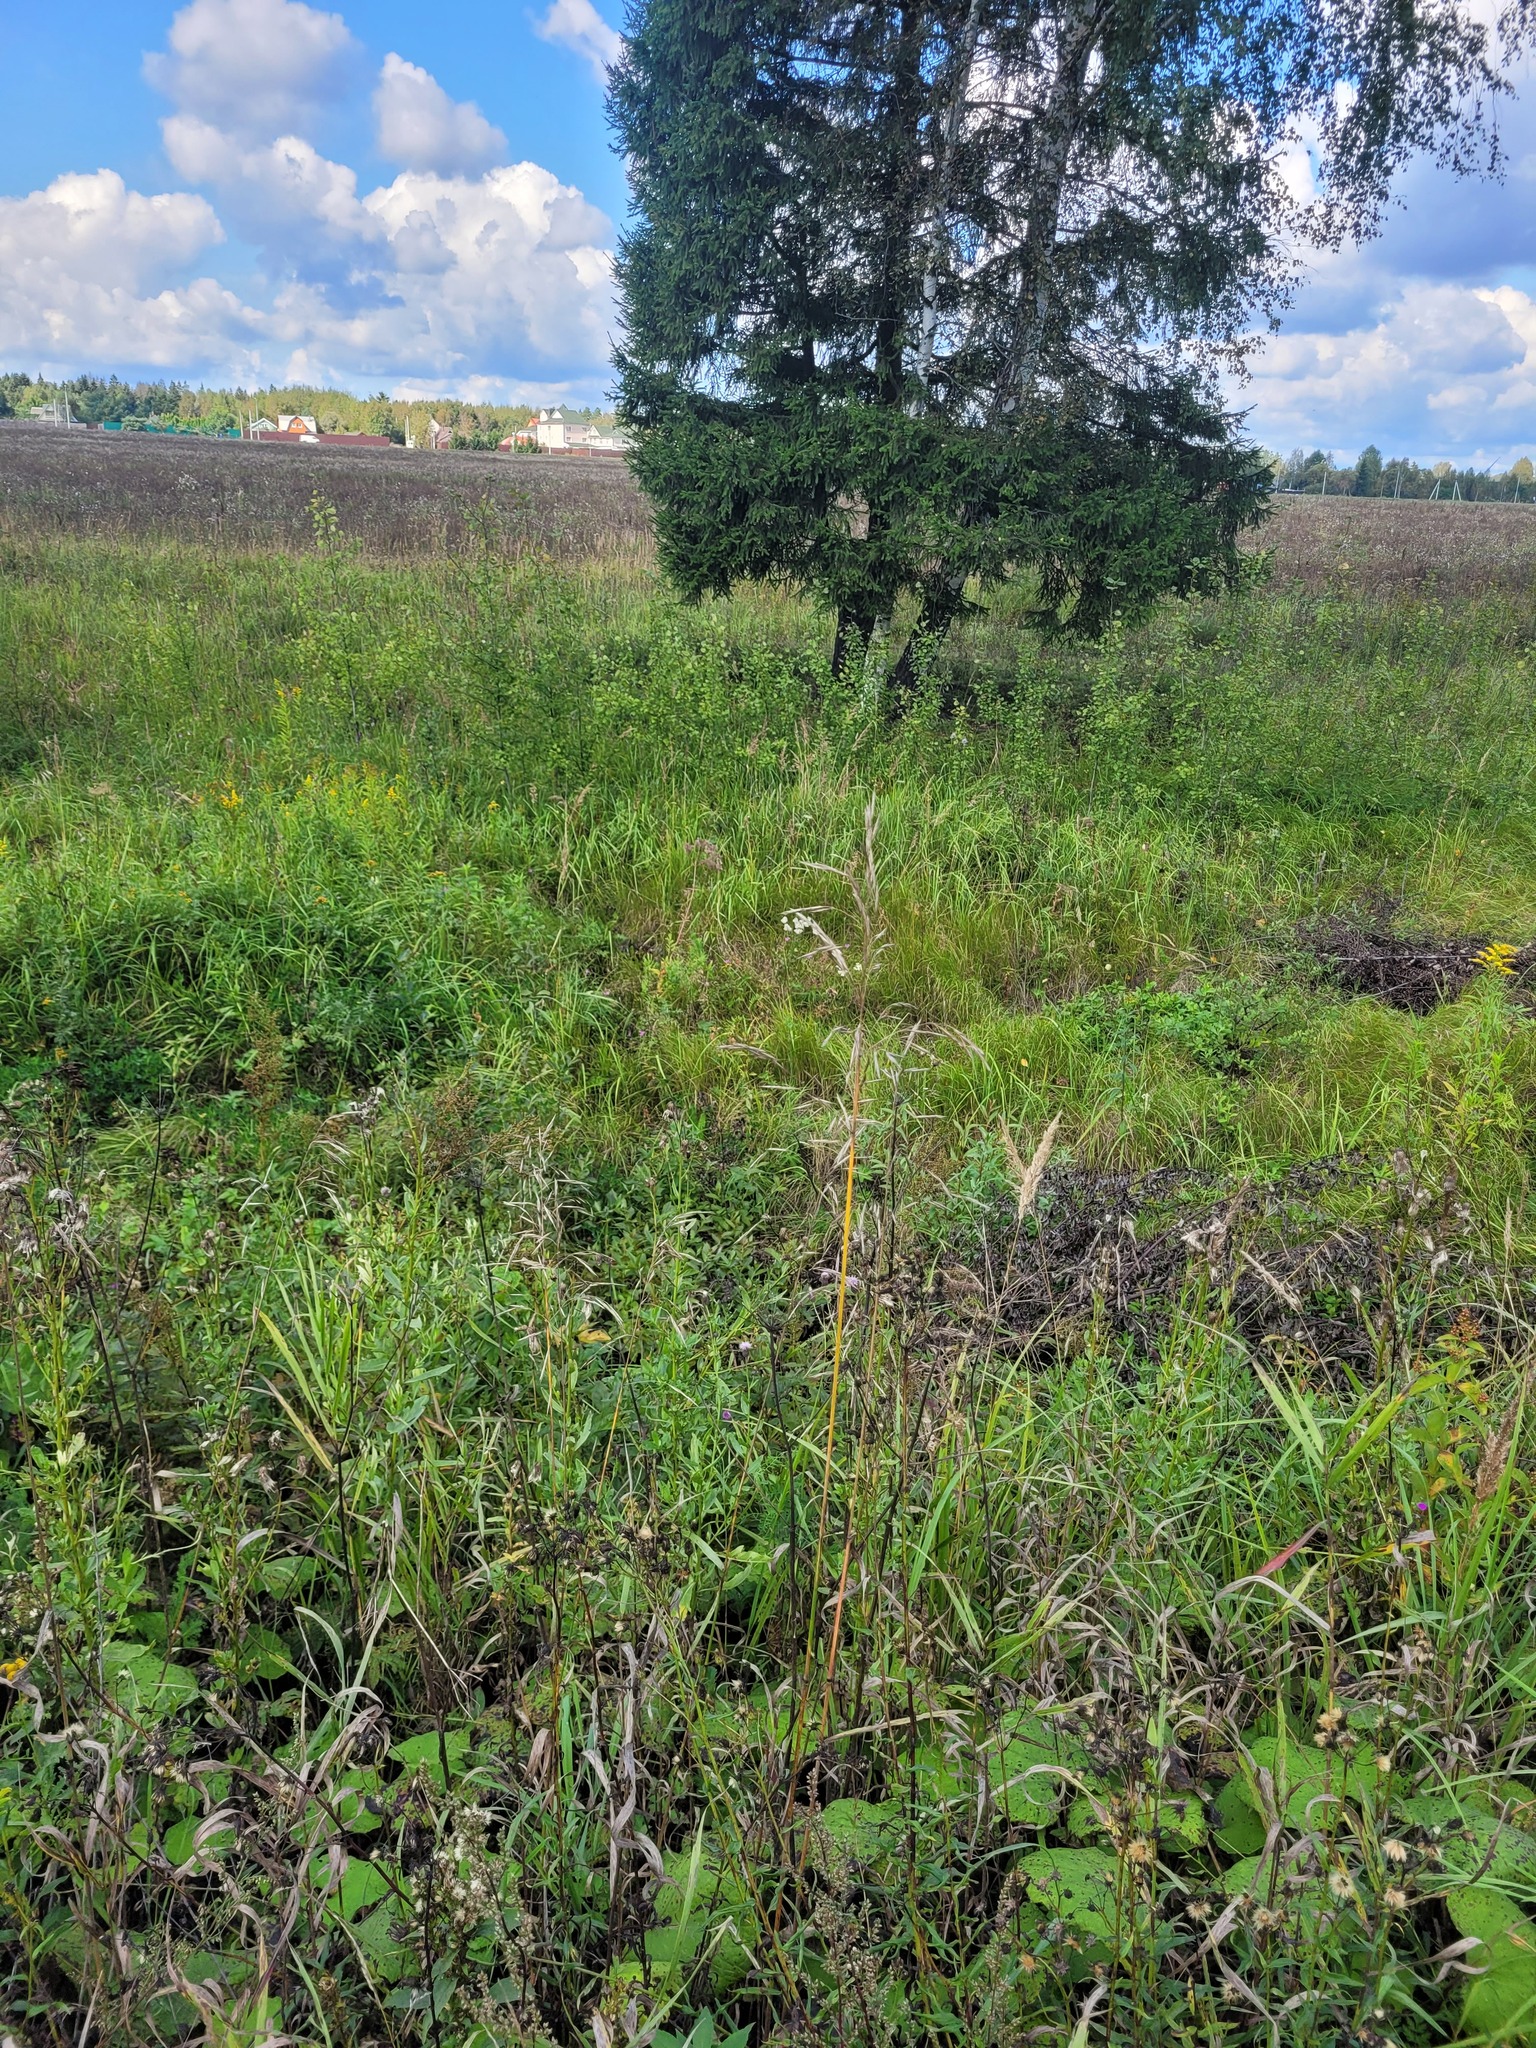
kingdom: Plantae
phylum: Tracheophyta
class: Liliopsida
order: Poales
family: Poaceae
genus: Bromus
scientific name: Bromus inermis
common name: Smooth brome
